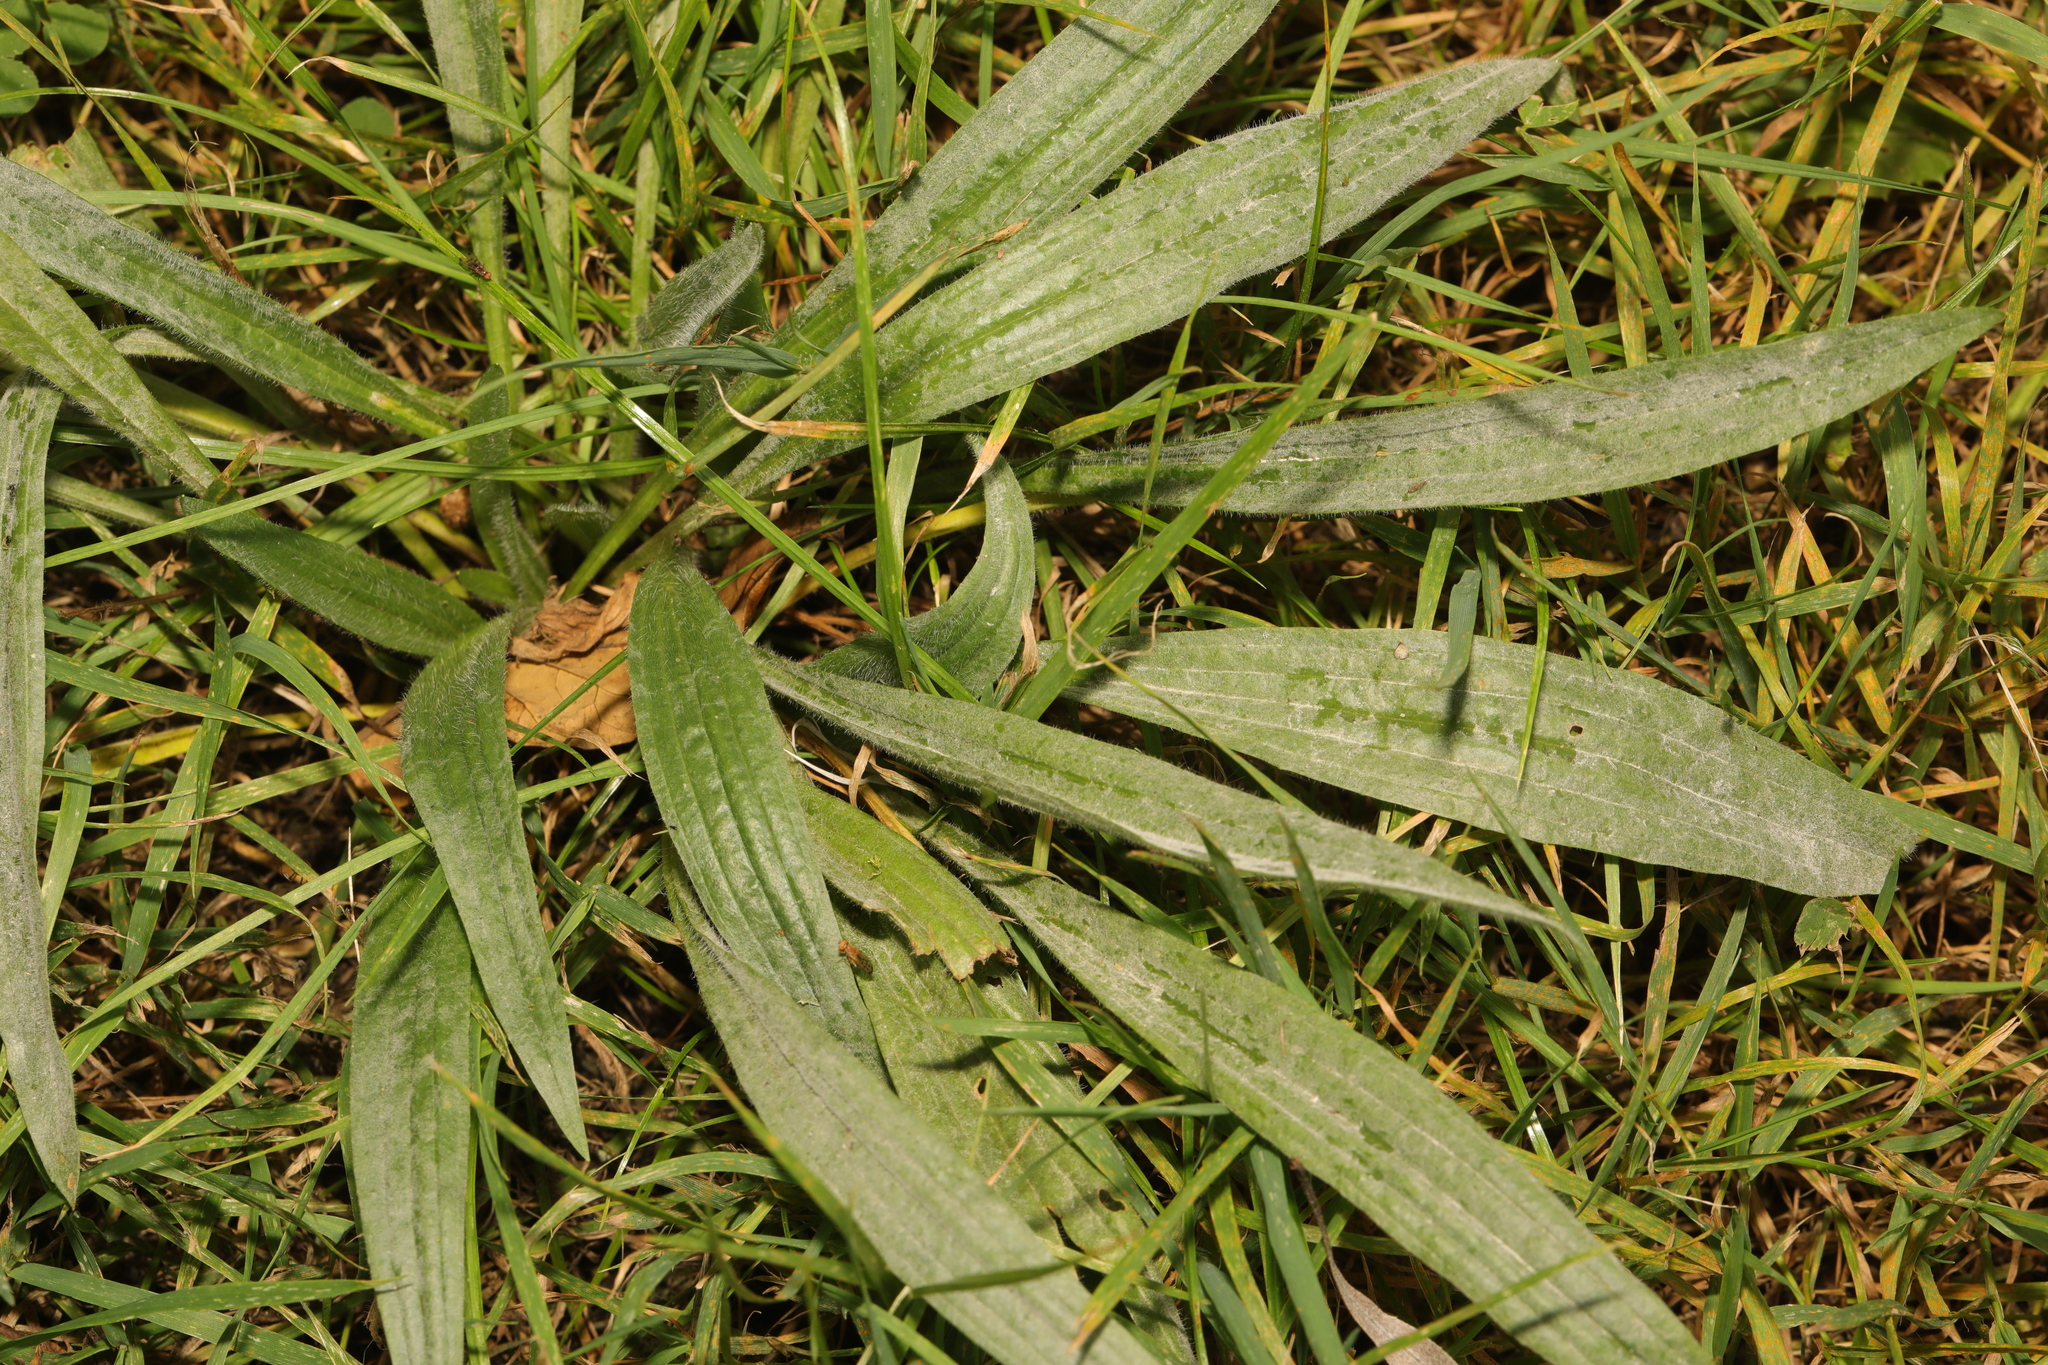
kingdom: Plantae
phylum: Tracheophyta
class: Magnoliopsida
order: Lamiales
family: Plantaginaceae
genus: Plantago
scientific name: Plantago lanceolata
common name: Ribwort plantain
